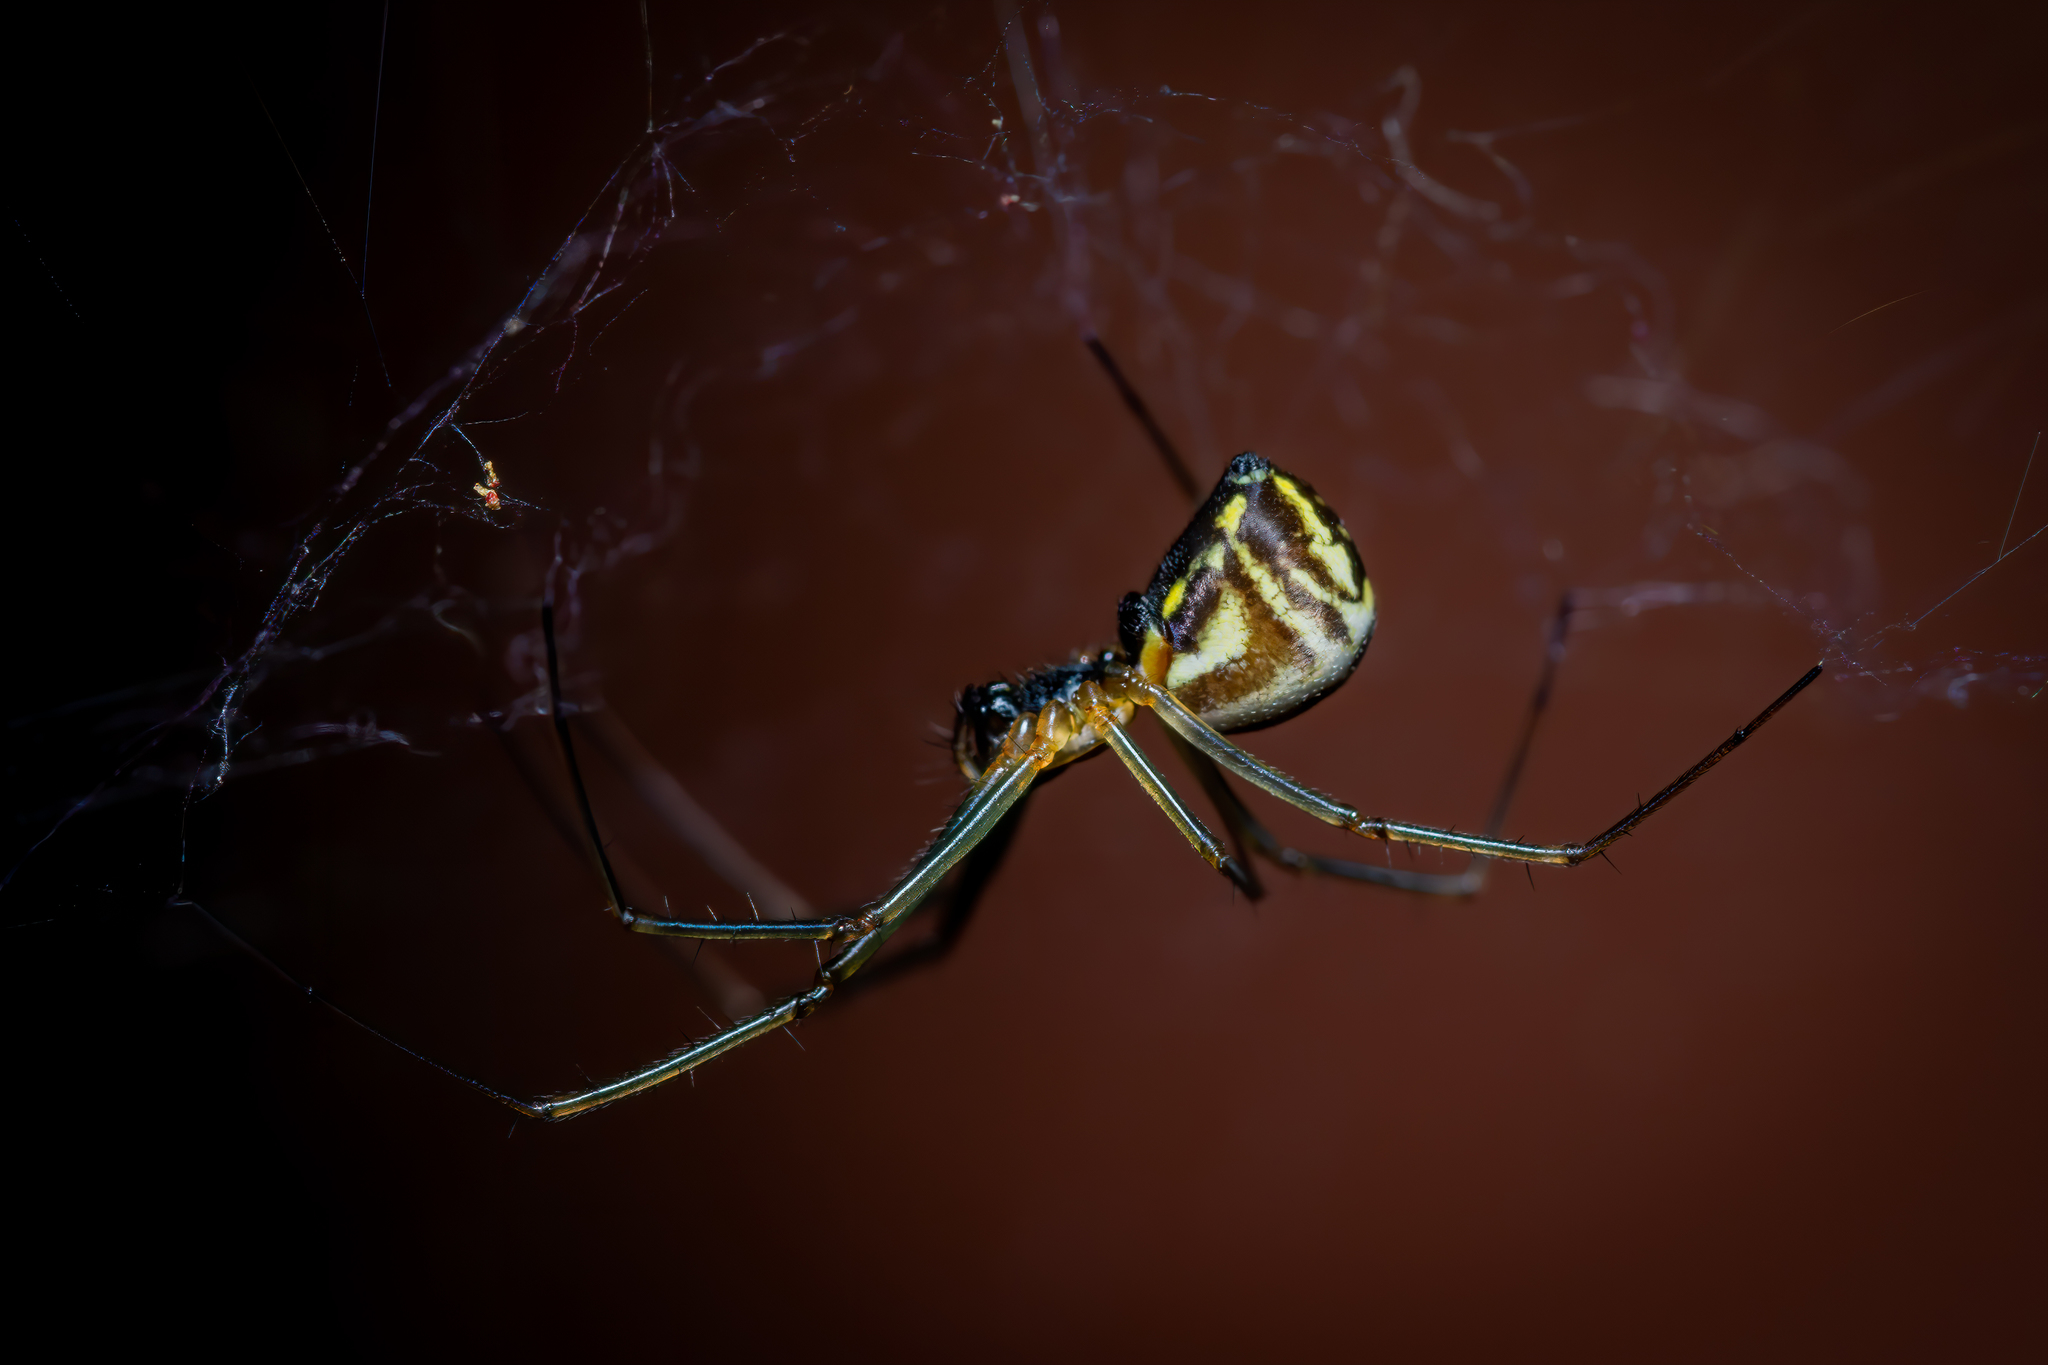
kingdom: Animalia
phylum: Arthropoda
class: Arachnida
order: Araneae
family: Linyphiidae
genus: Neriene
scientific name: Neriene radiata
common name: Filmy dome spider
